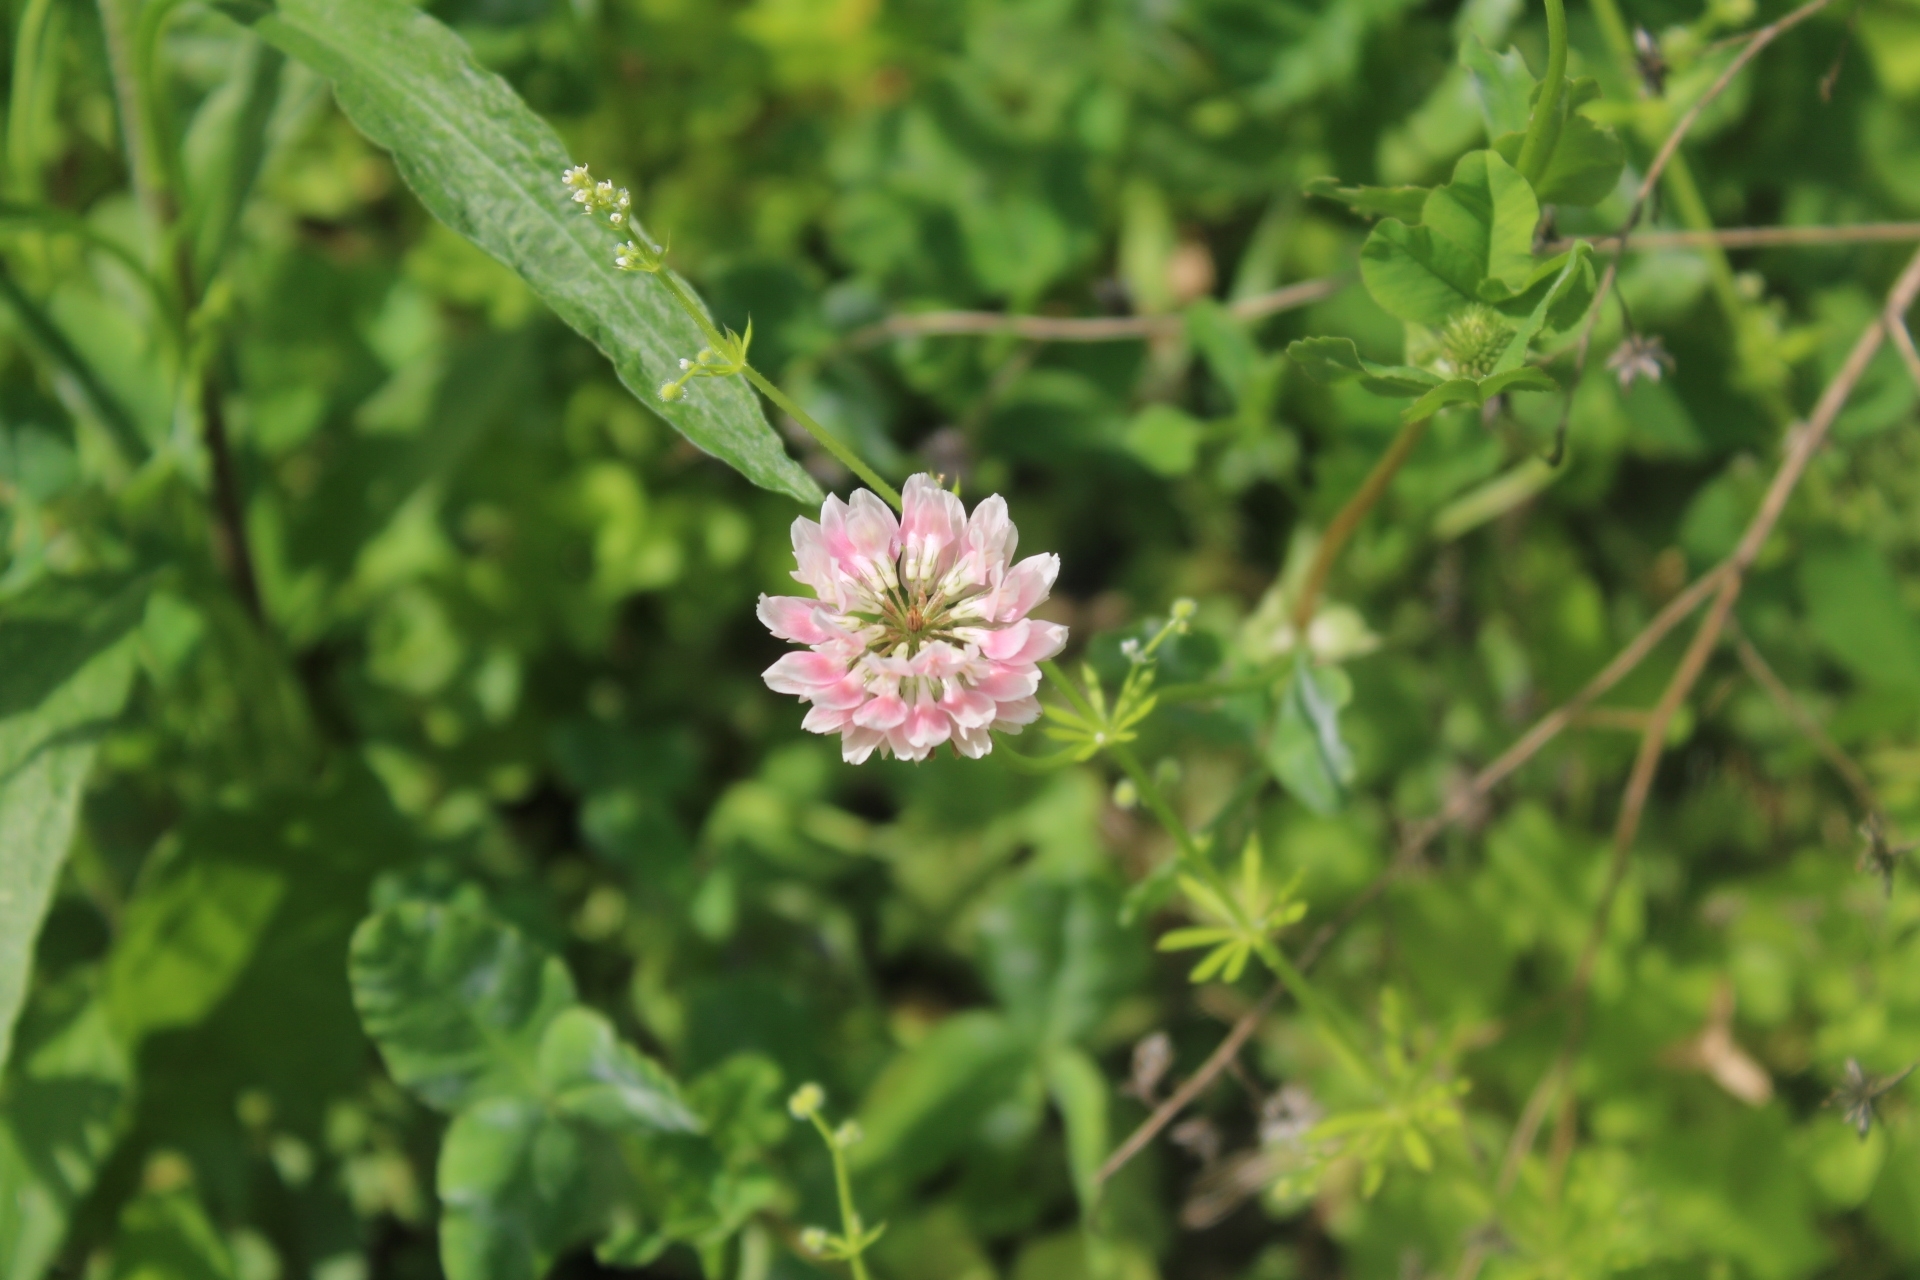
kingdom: Plantae
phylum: Tracheophyta
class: Magnoliopsida
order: Fabales
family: Fabaceae
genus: Trifolium
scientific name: Trifolium hybridum
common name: Alsike clover
